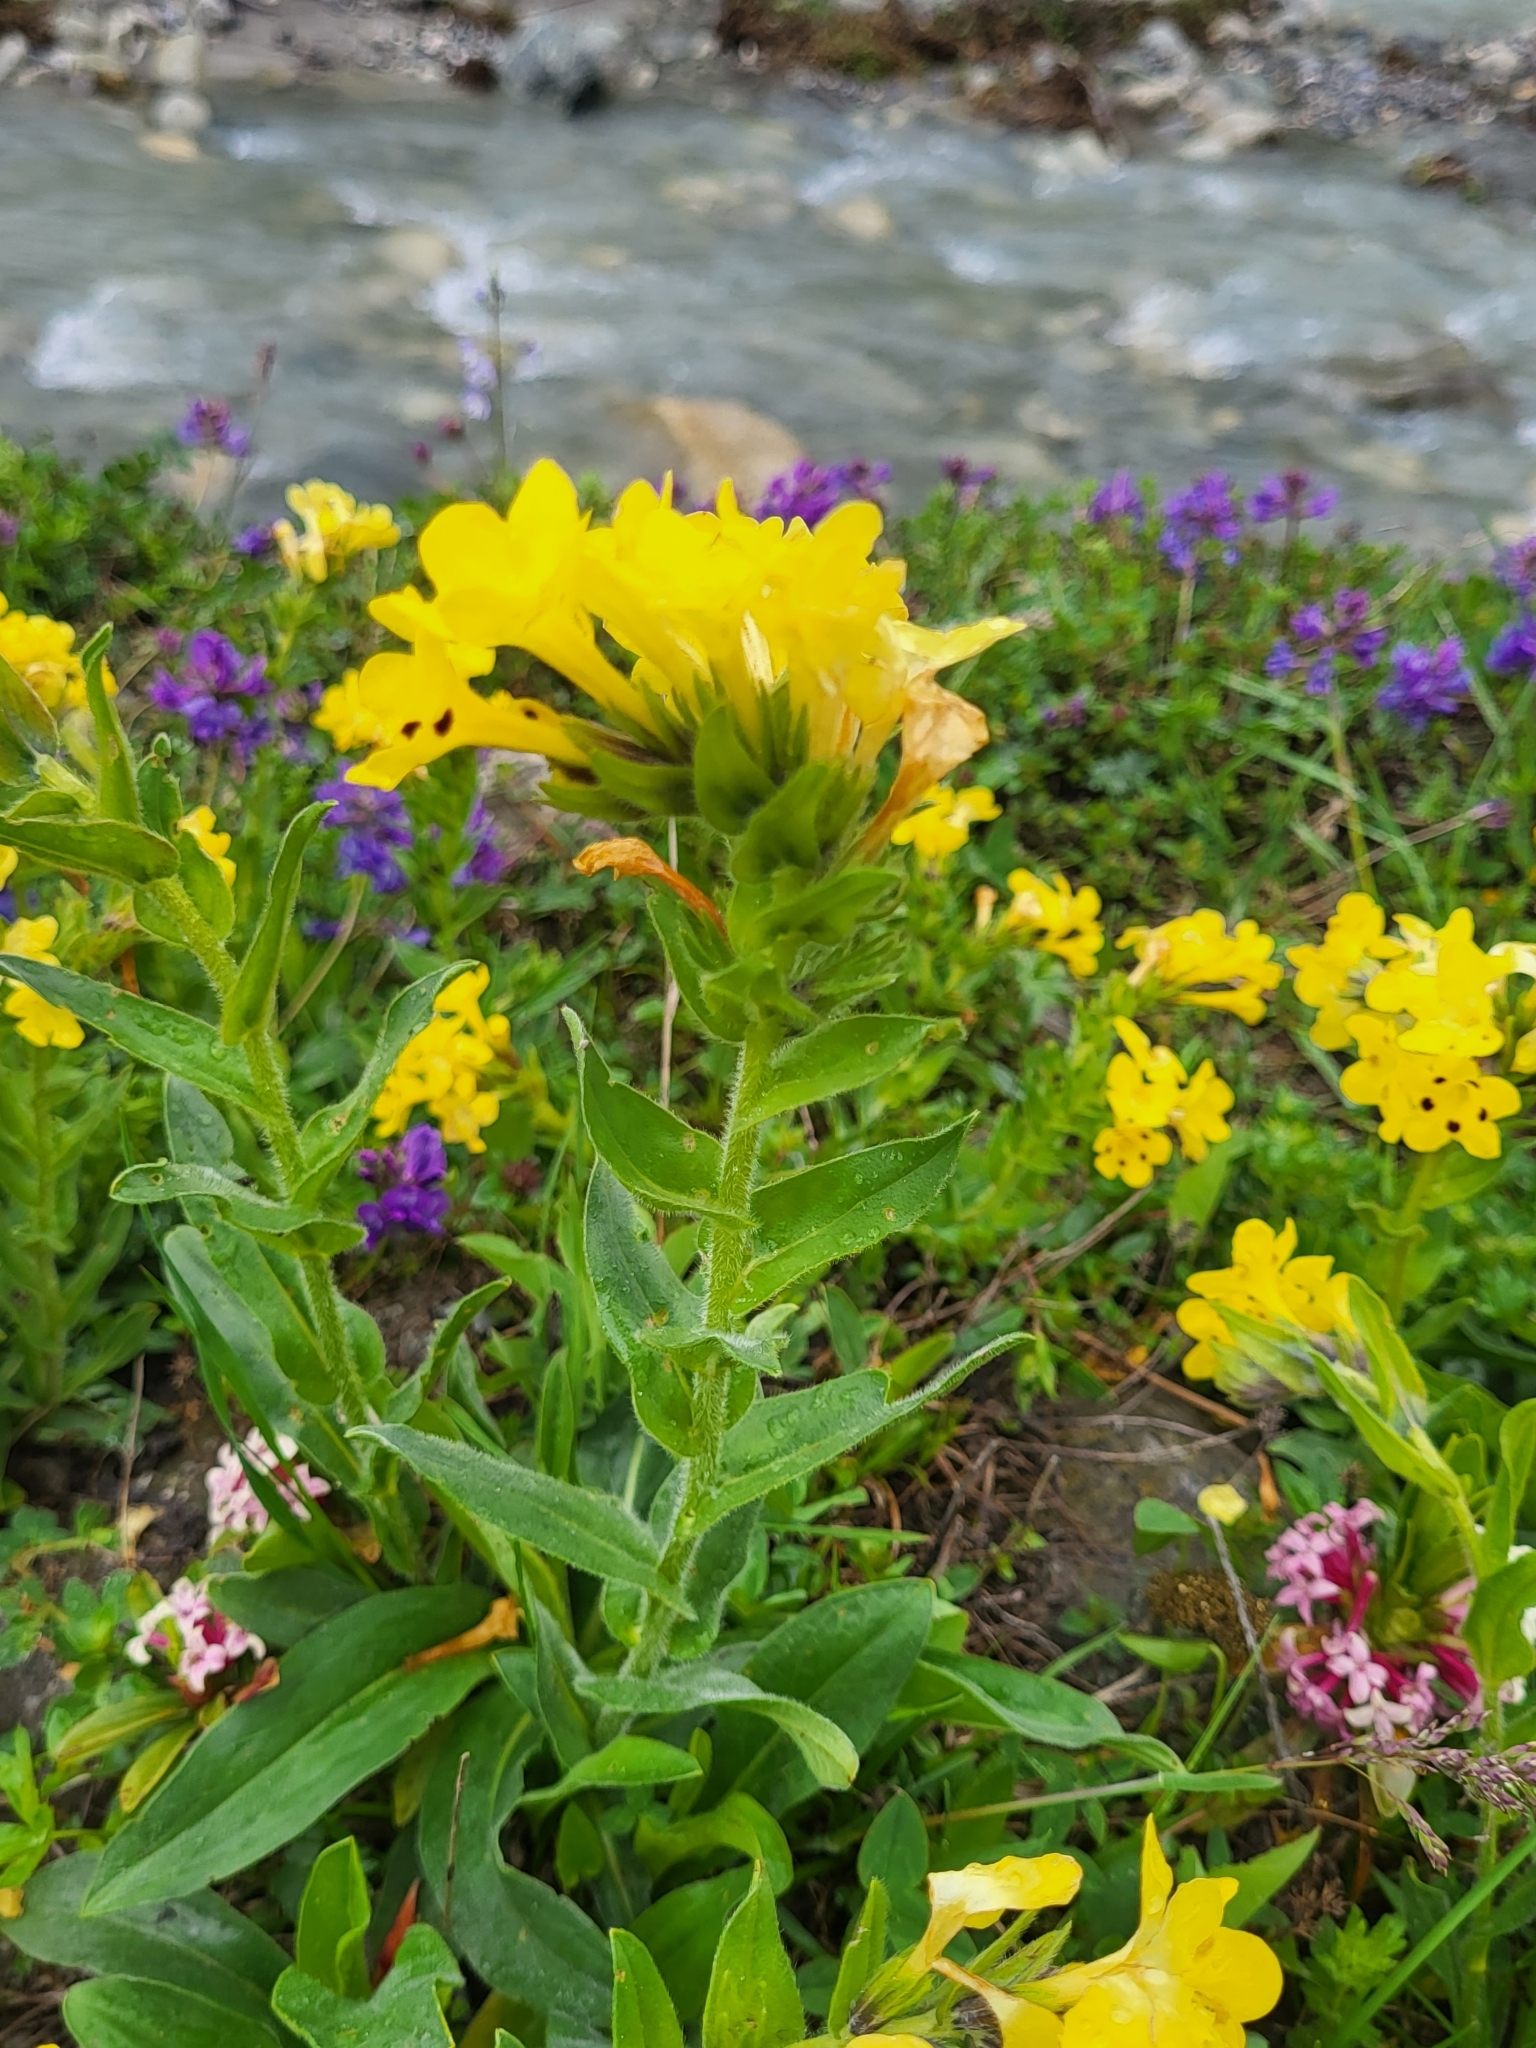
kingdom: Plantae
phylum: Tracheophyta
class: Magnoliopsida
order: Boraginales
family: Boraginaceae
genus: Huynhia
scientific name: Huynhia pulchra
